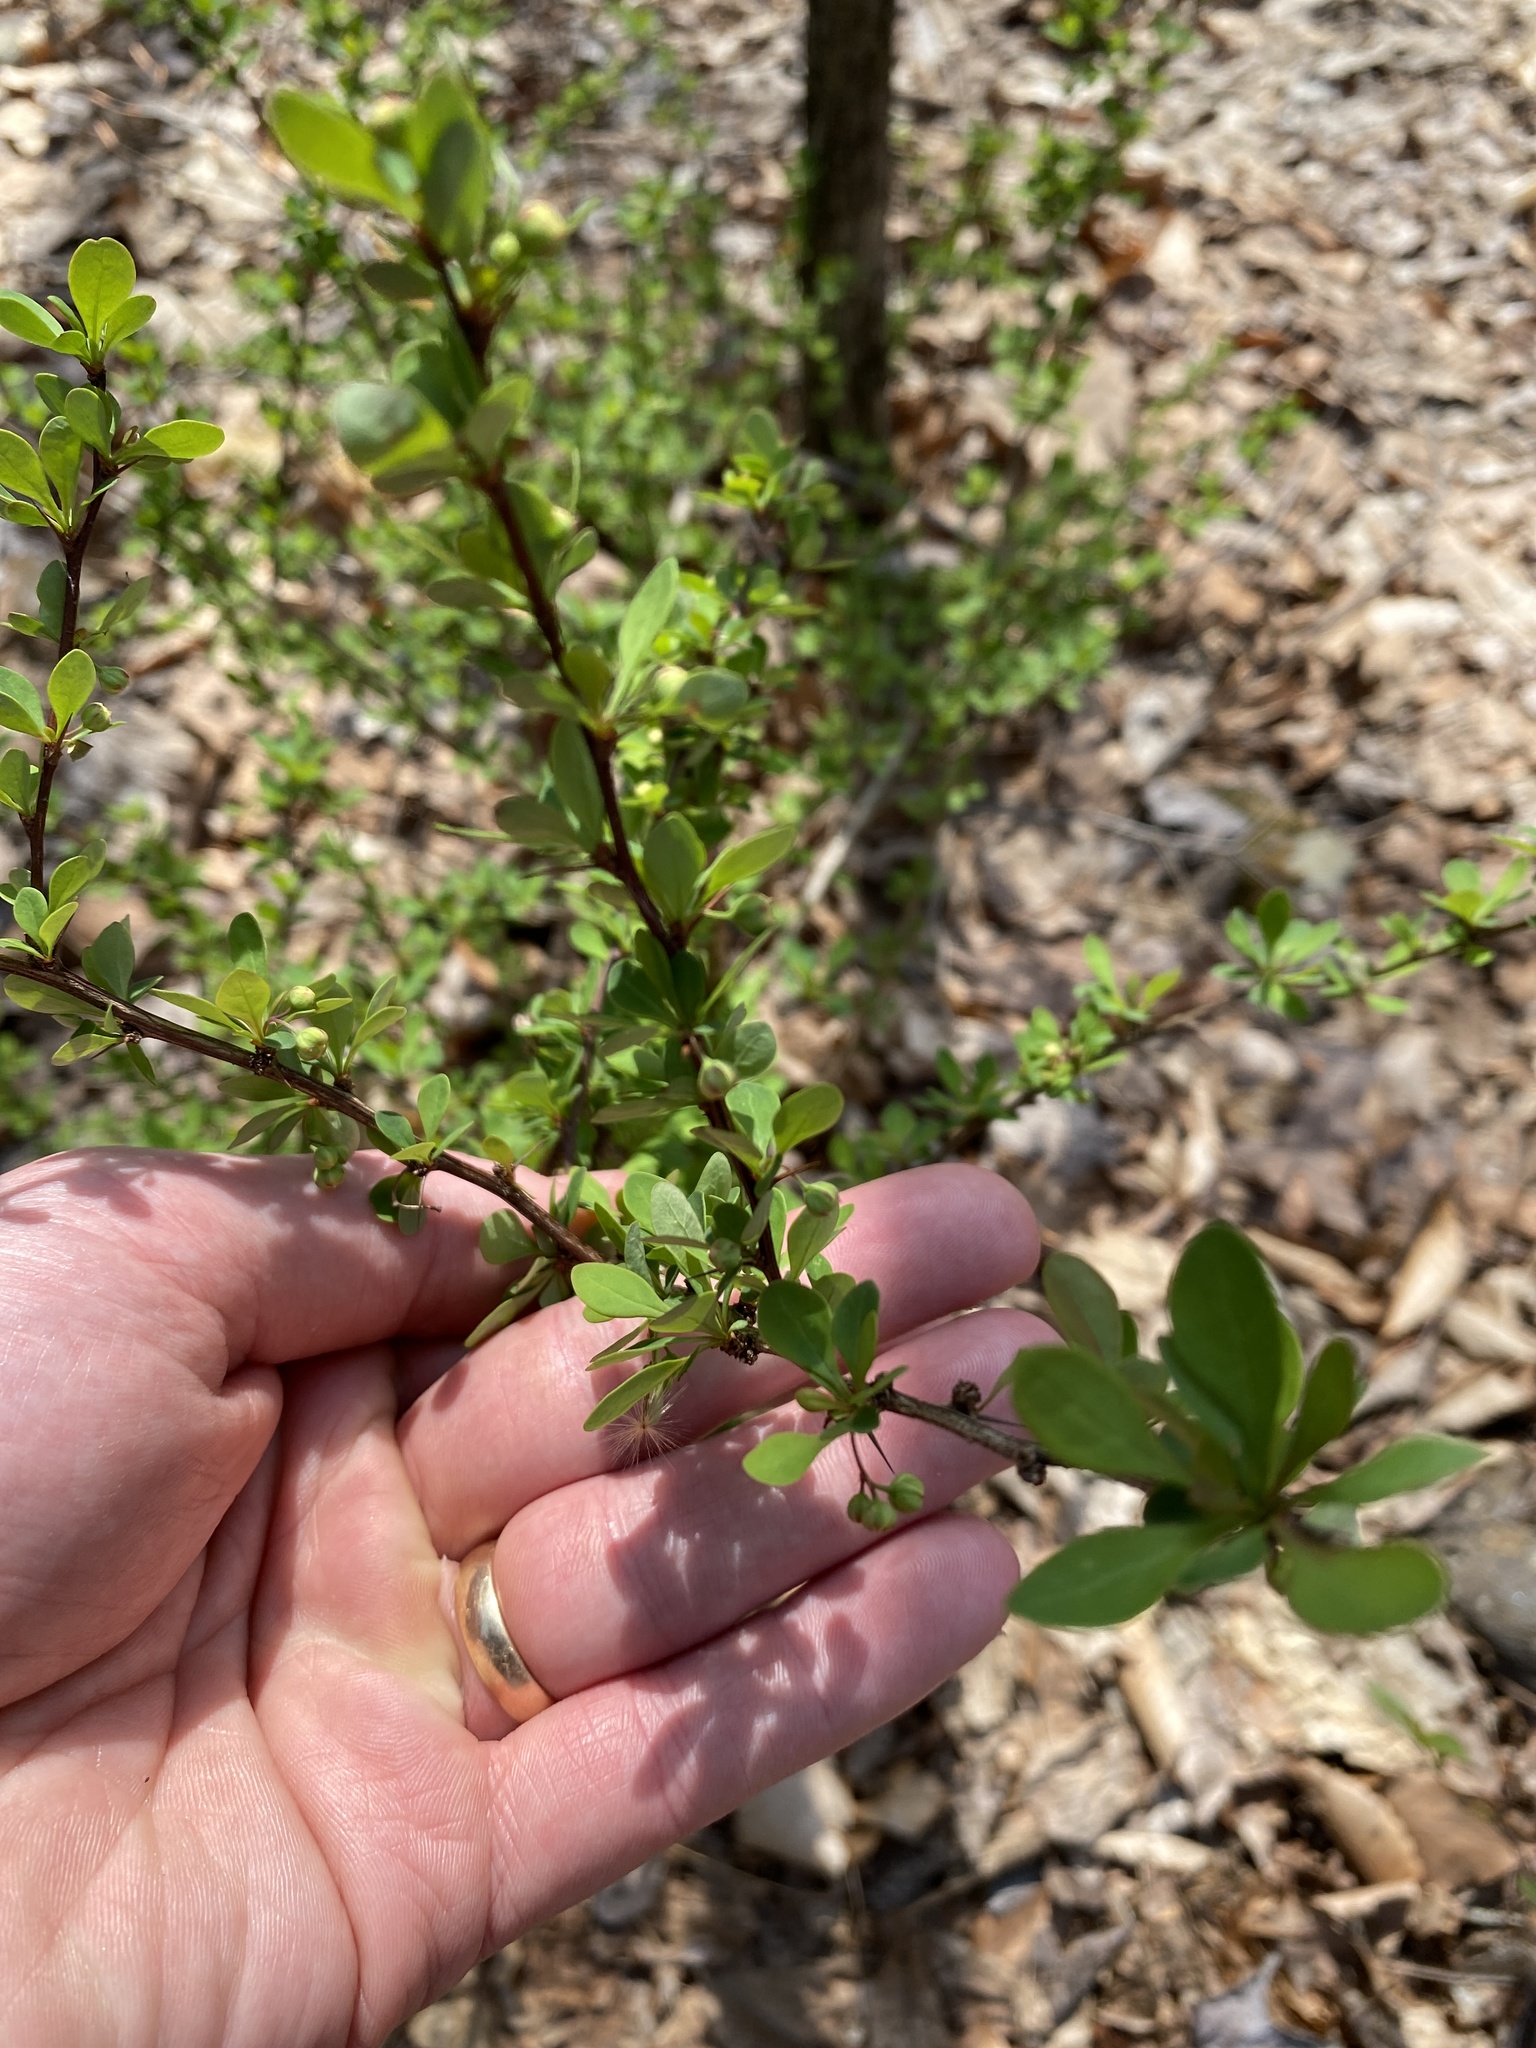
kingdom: Plantae
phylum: Tracheophyta
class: Magnoliopsida
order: Ranunculales
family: Berberidaceae
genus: Berberis
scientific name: Berberis thunbergii
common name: Japanese barberry
